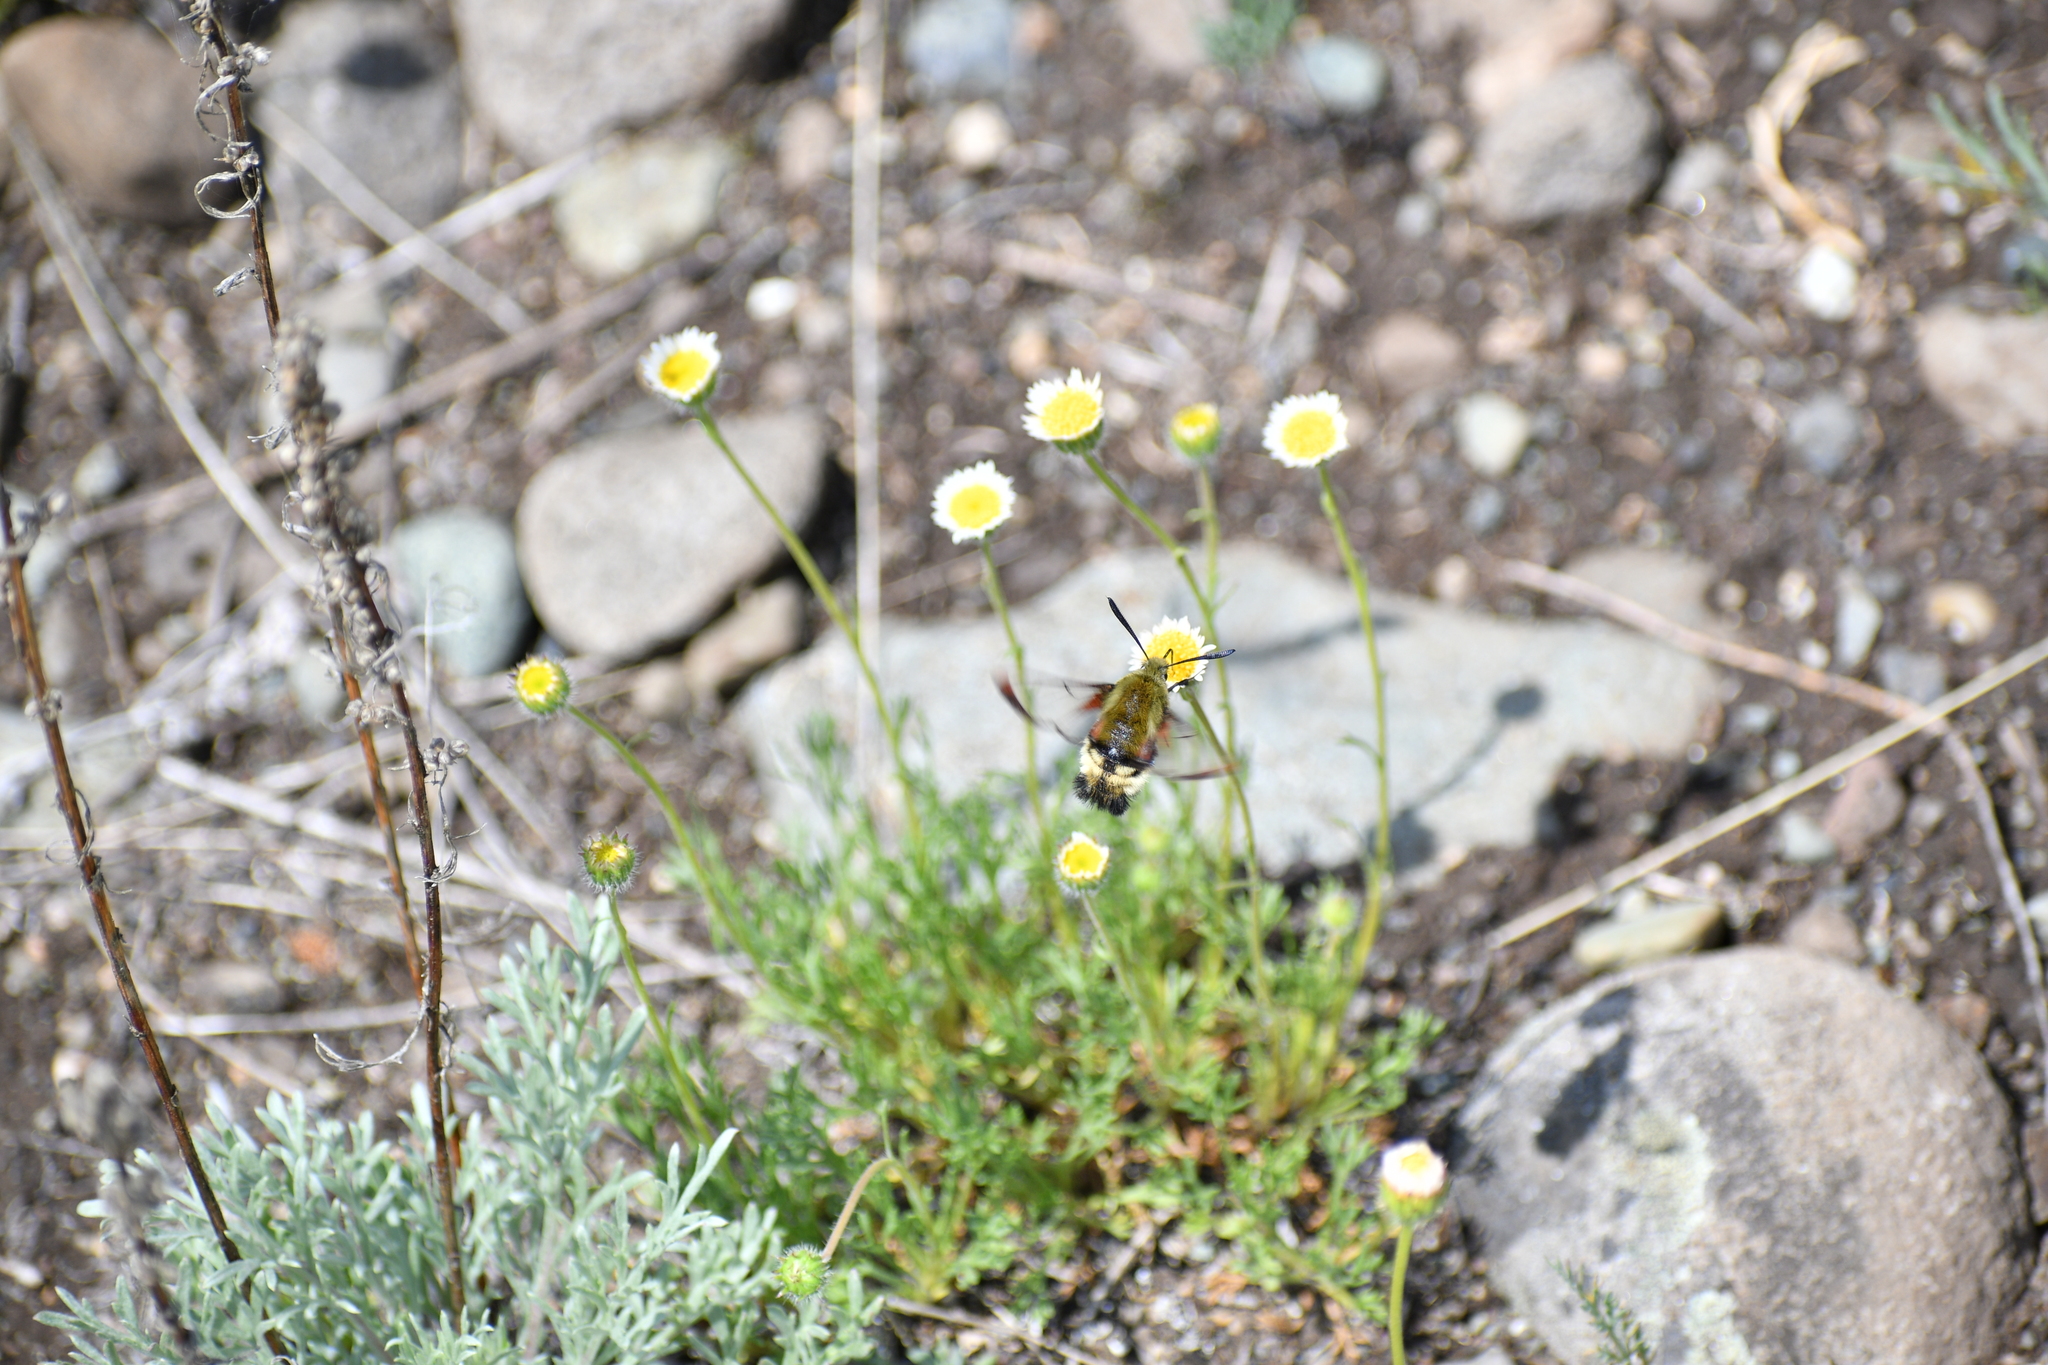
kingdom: Animalia
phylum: Arthropoda
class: Insecta
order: Lepidoptera
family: Sphingidae
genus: Hemaris
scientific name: Hemaris thetis
